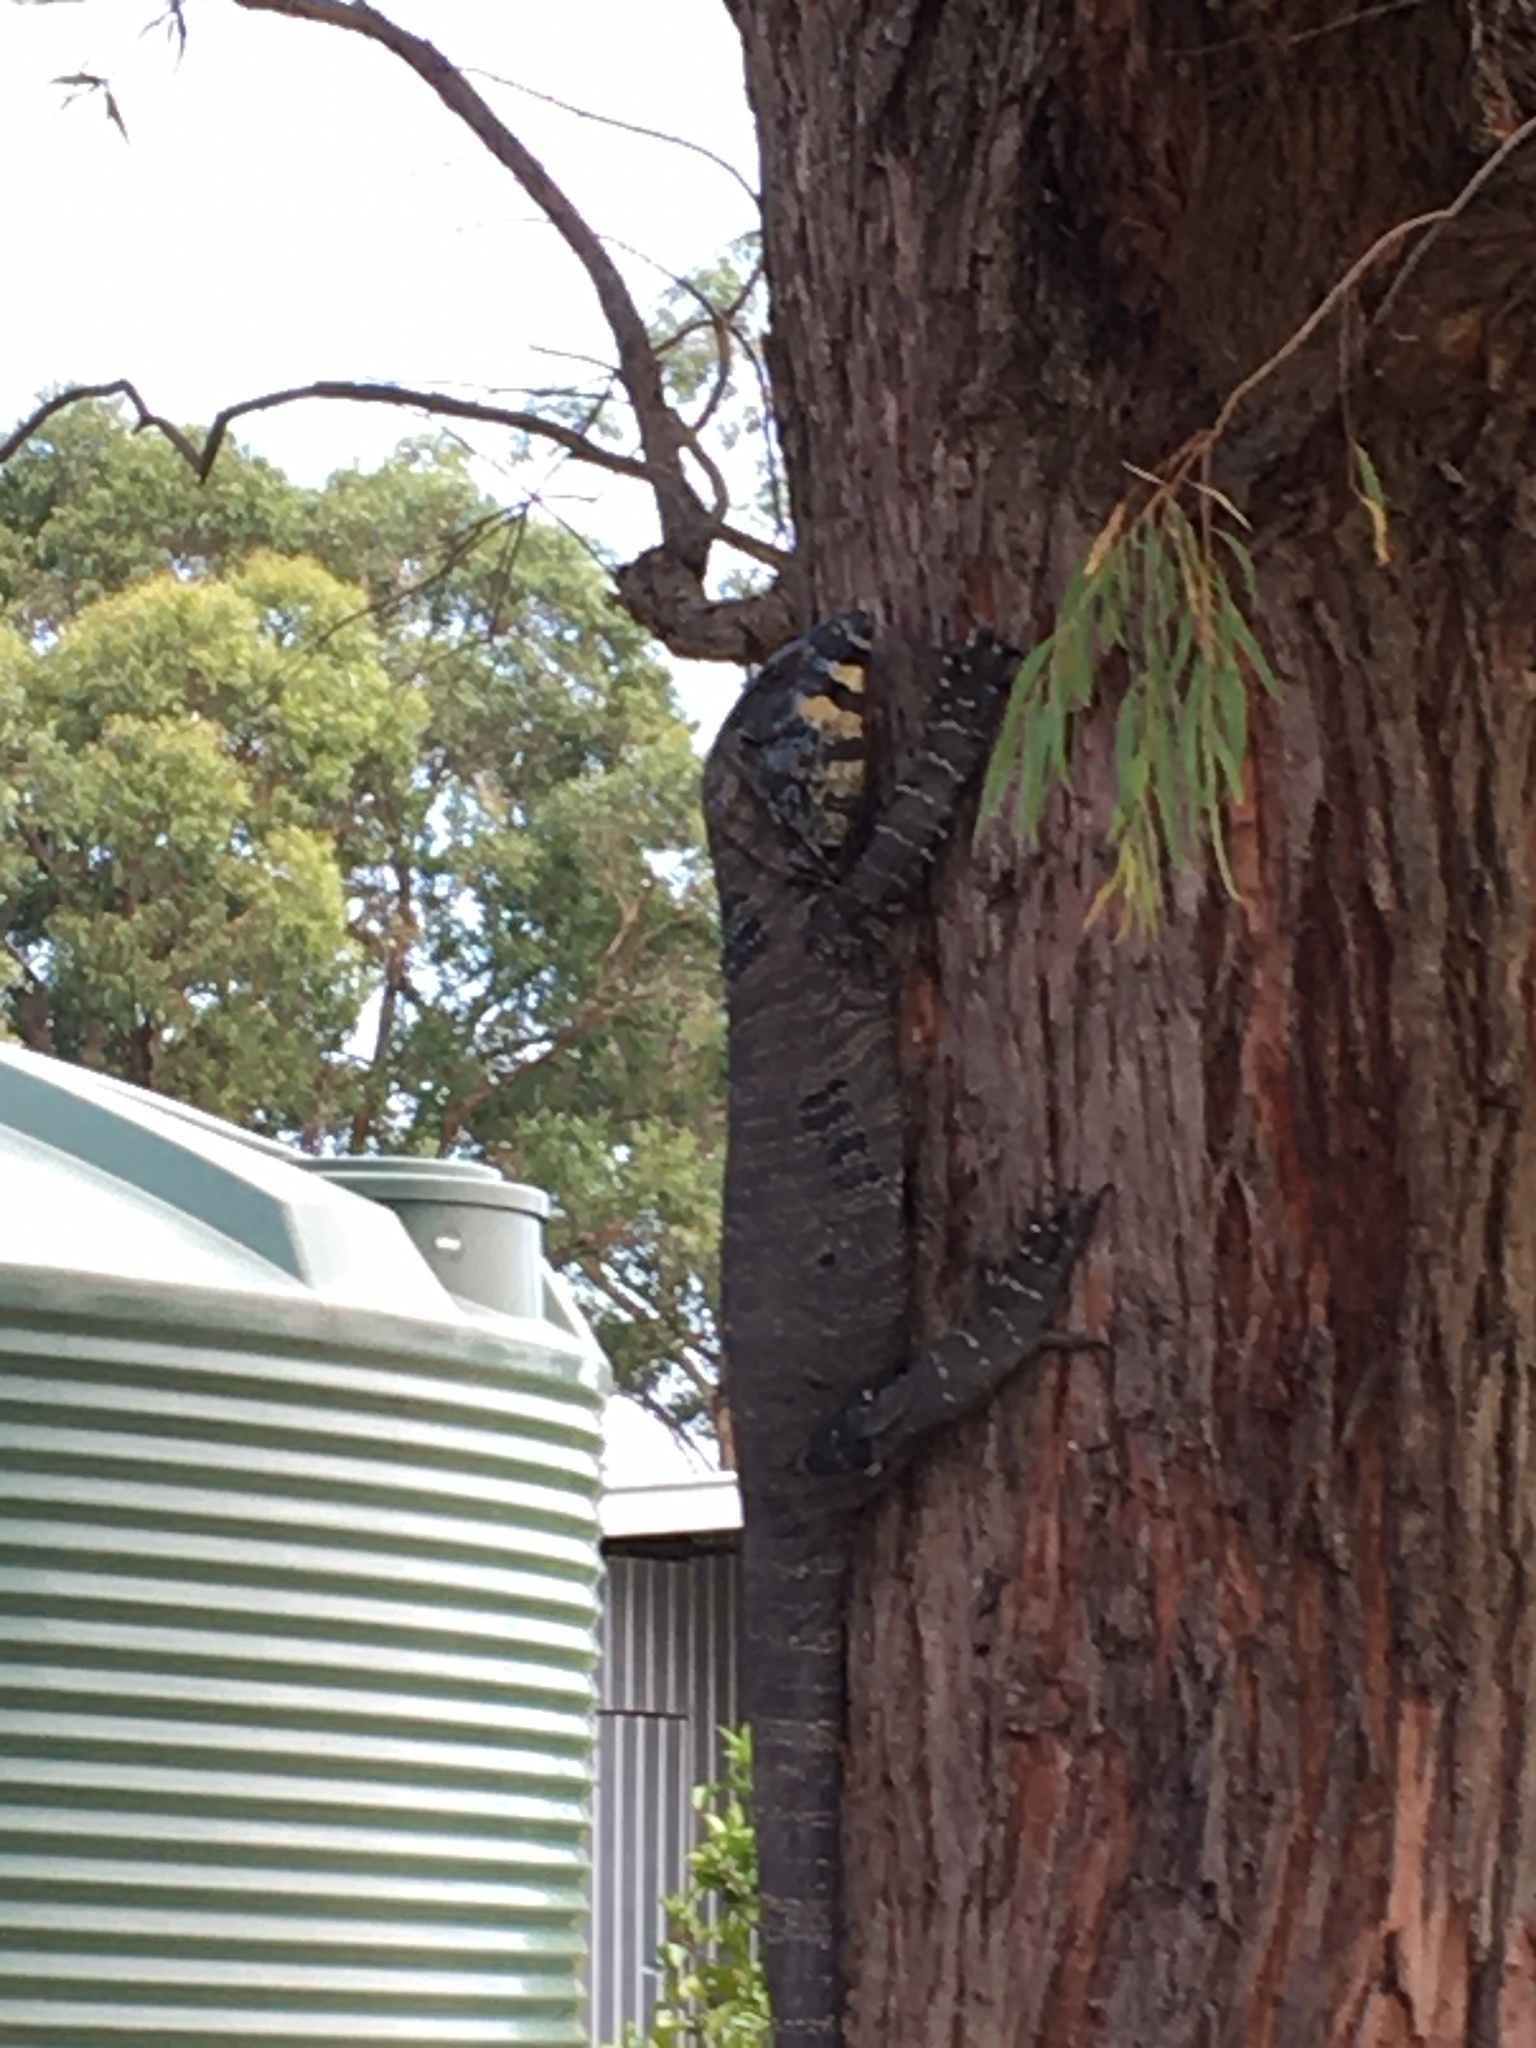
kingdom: Animalia
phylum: Chordata
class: Squamata
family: Varanidae
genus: Varanus
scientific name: Varanus varius
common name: Lace monitor
